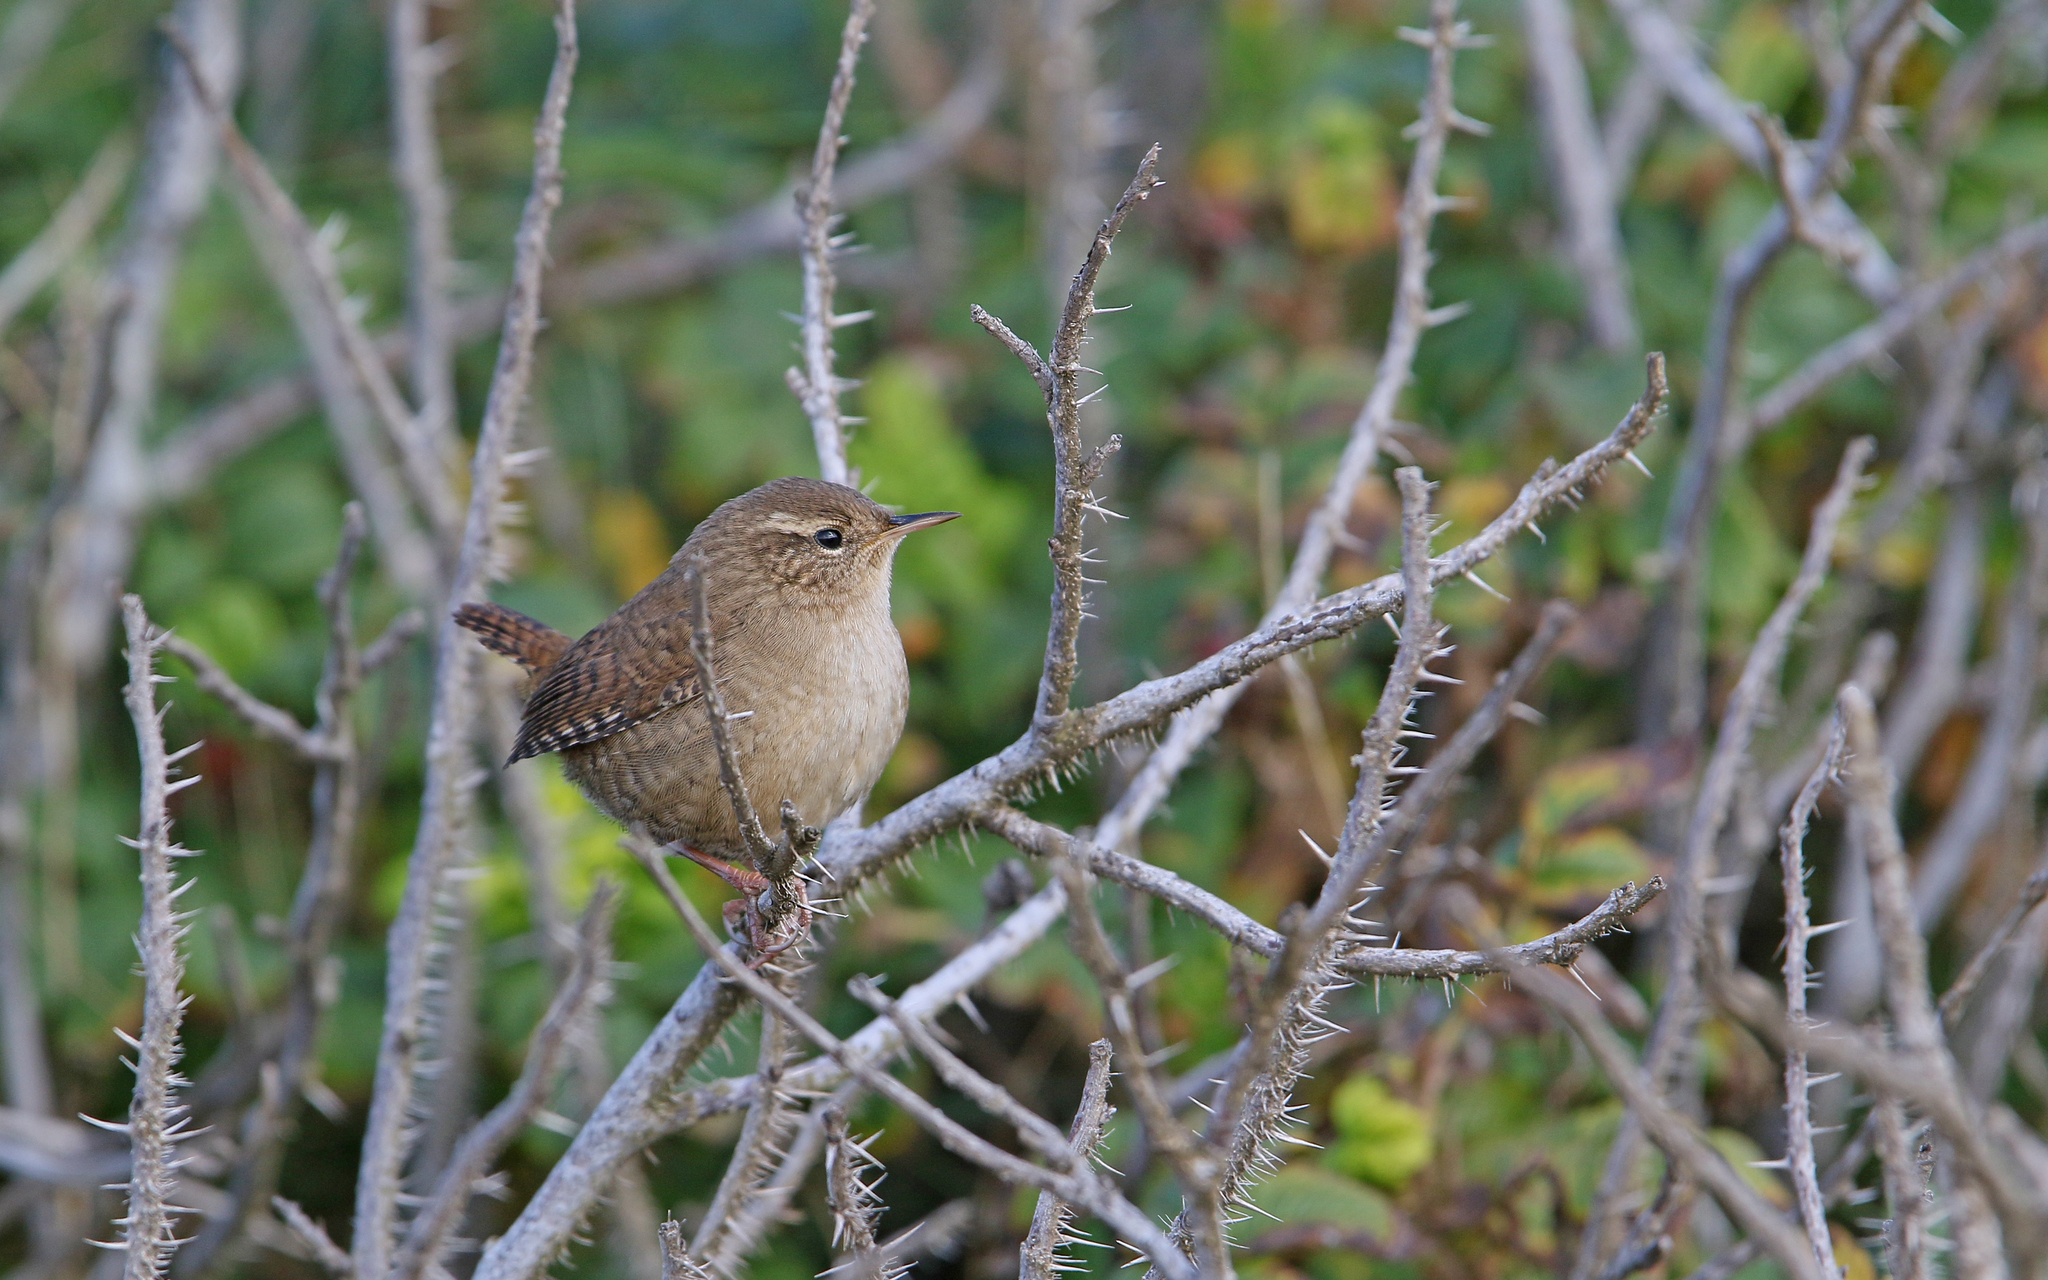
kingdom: Animalia
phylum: Chordata
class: Aves
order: Passeriformes
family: Troglodytidae
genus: Troglodytes
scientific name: Troglodytes troglodytes
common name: Eurasian wren
